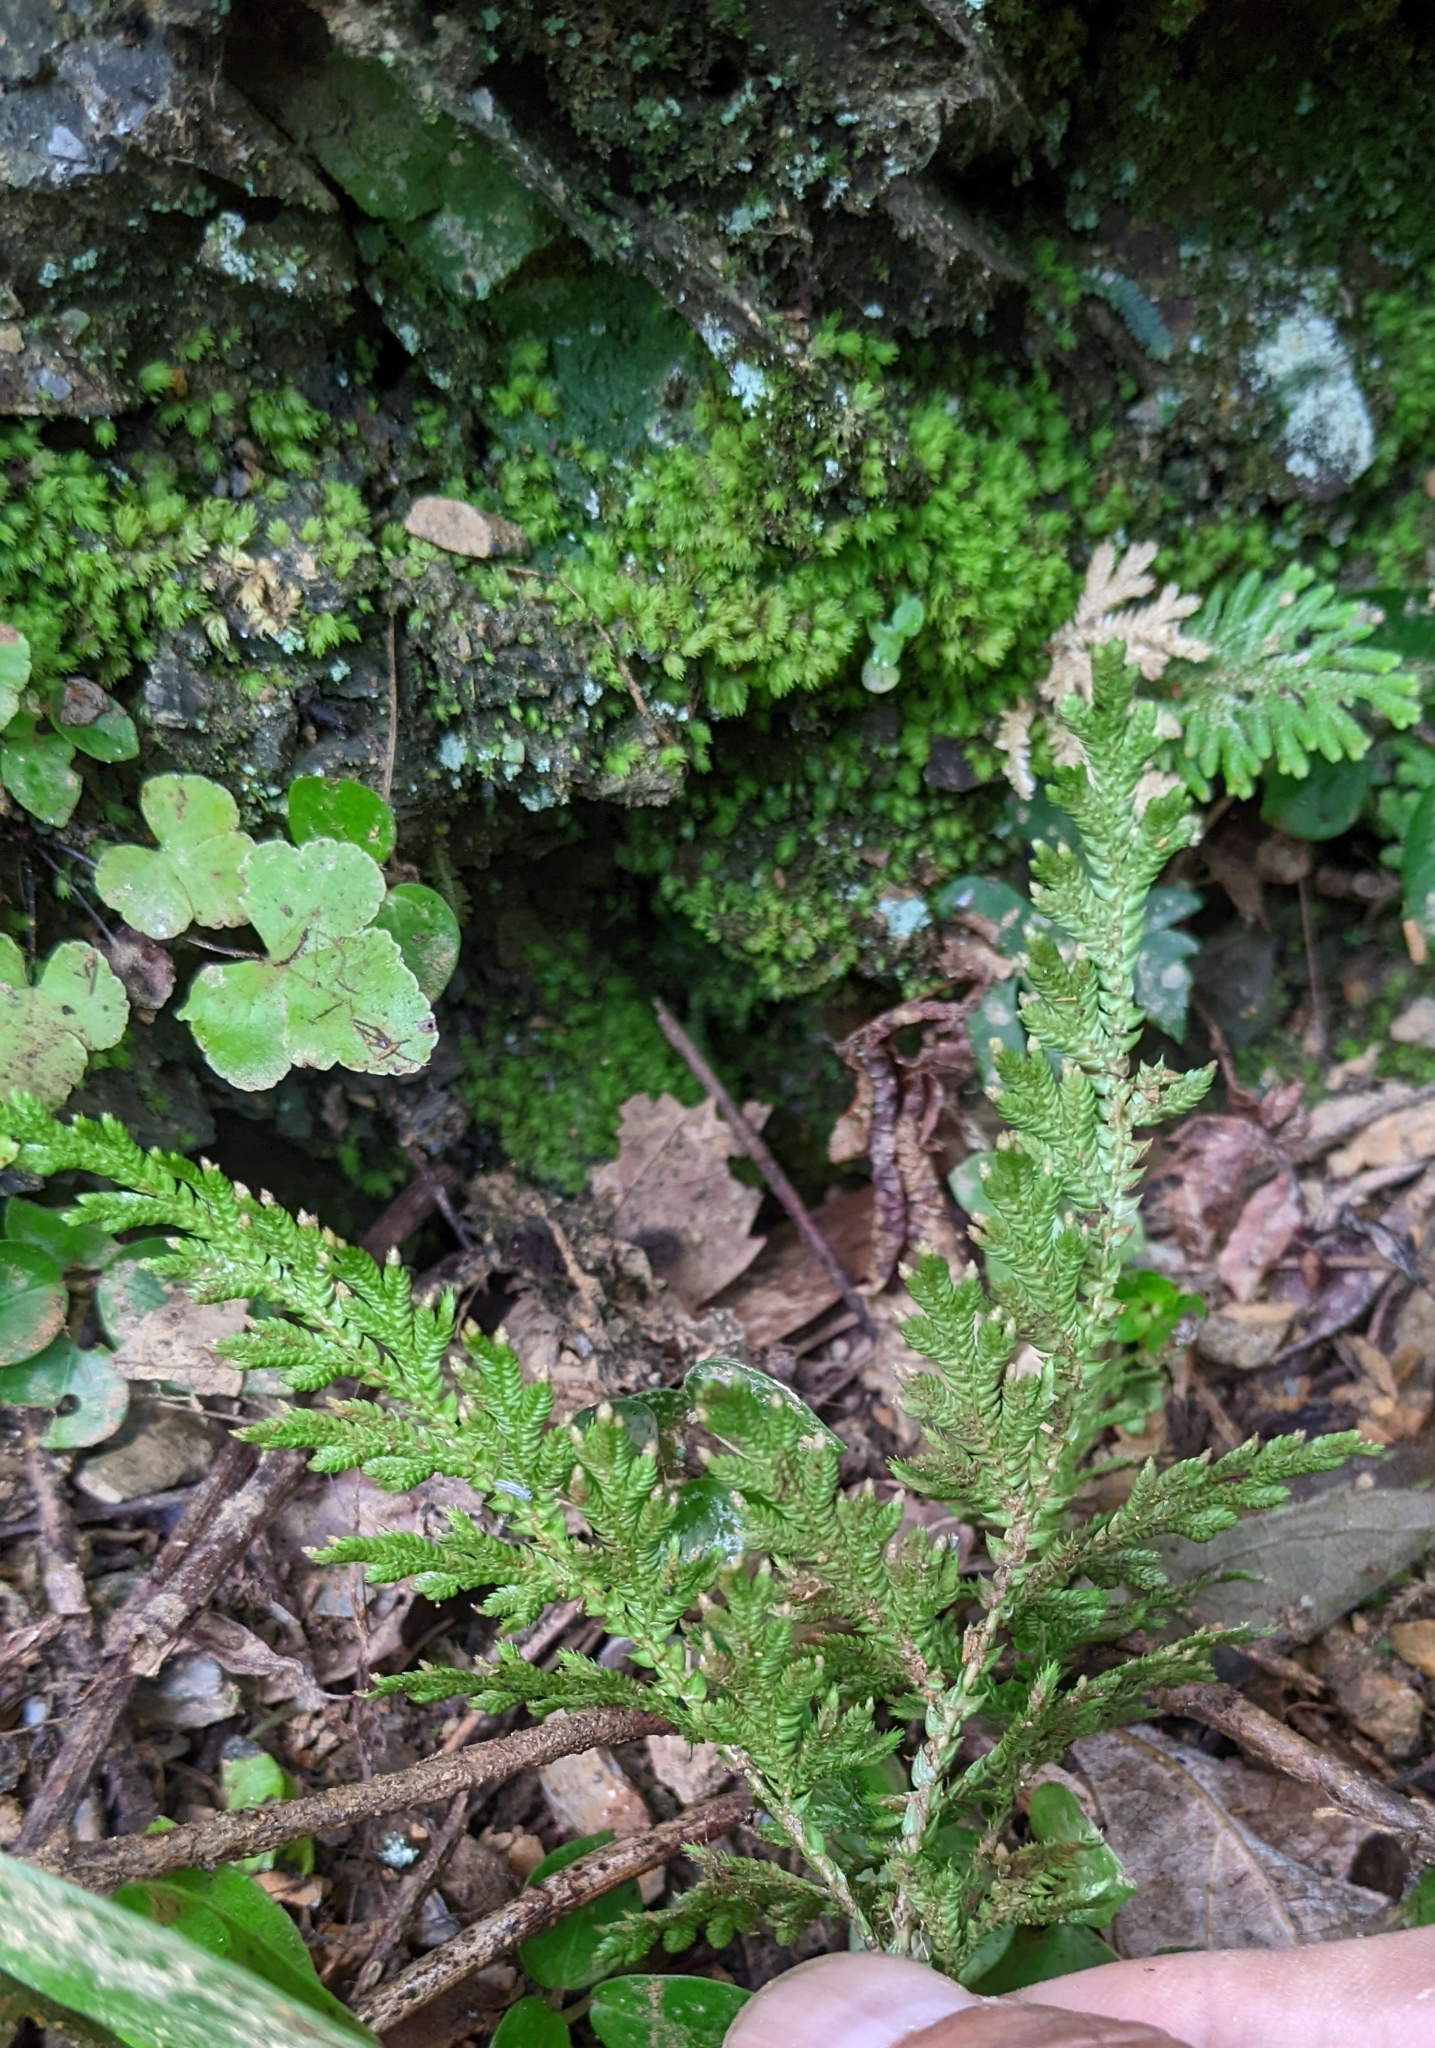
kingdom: Plantae
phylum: Tracheophyta
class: Lycopodiopsida
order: Selaginellales
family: Selaginellaceae
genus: Selaginella
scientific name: Selaginella moellendorffii
